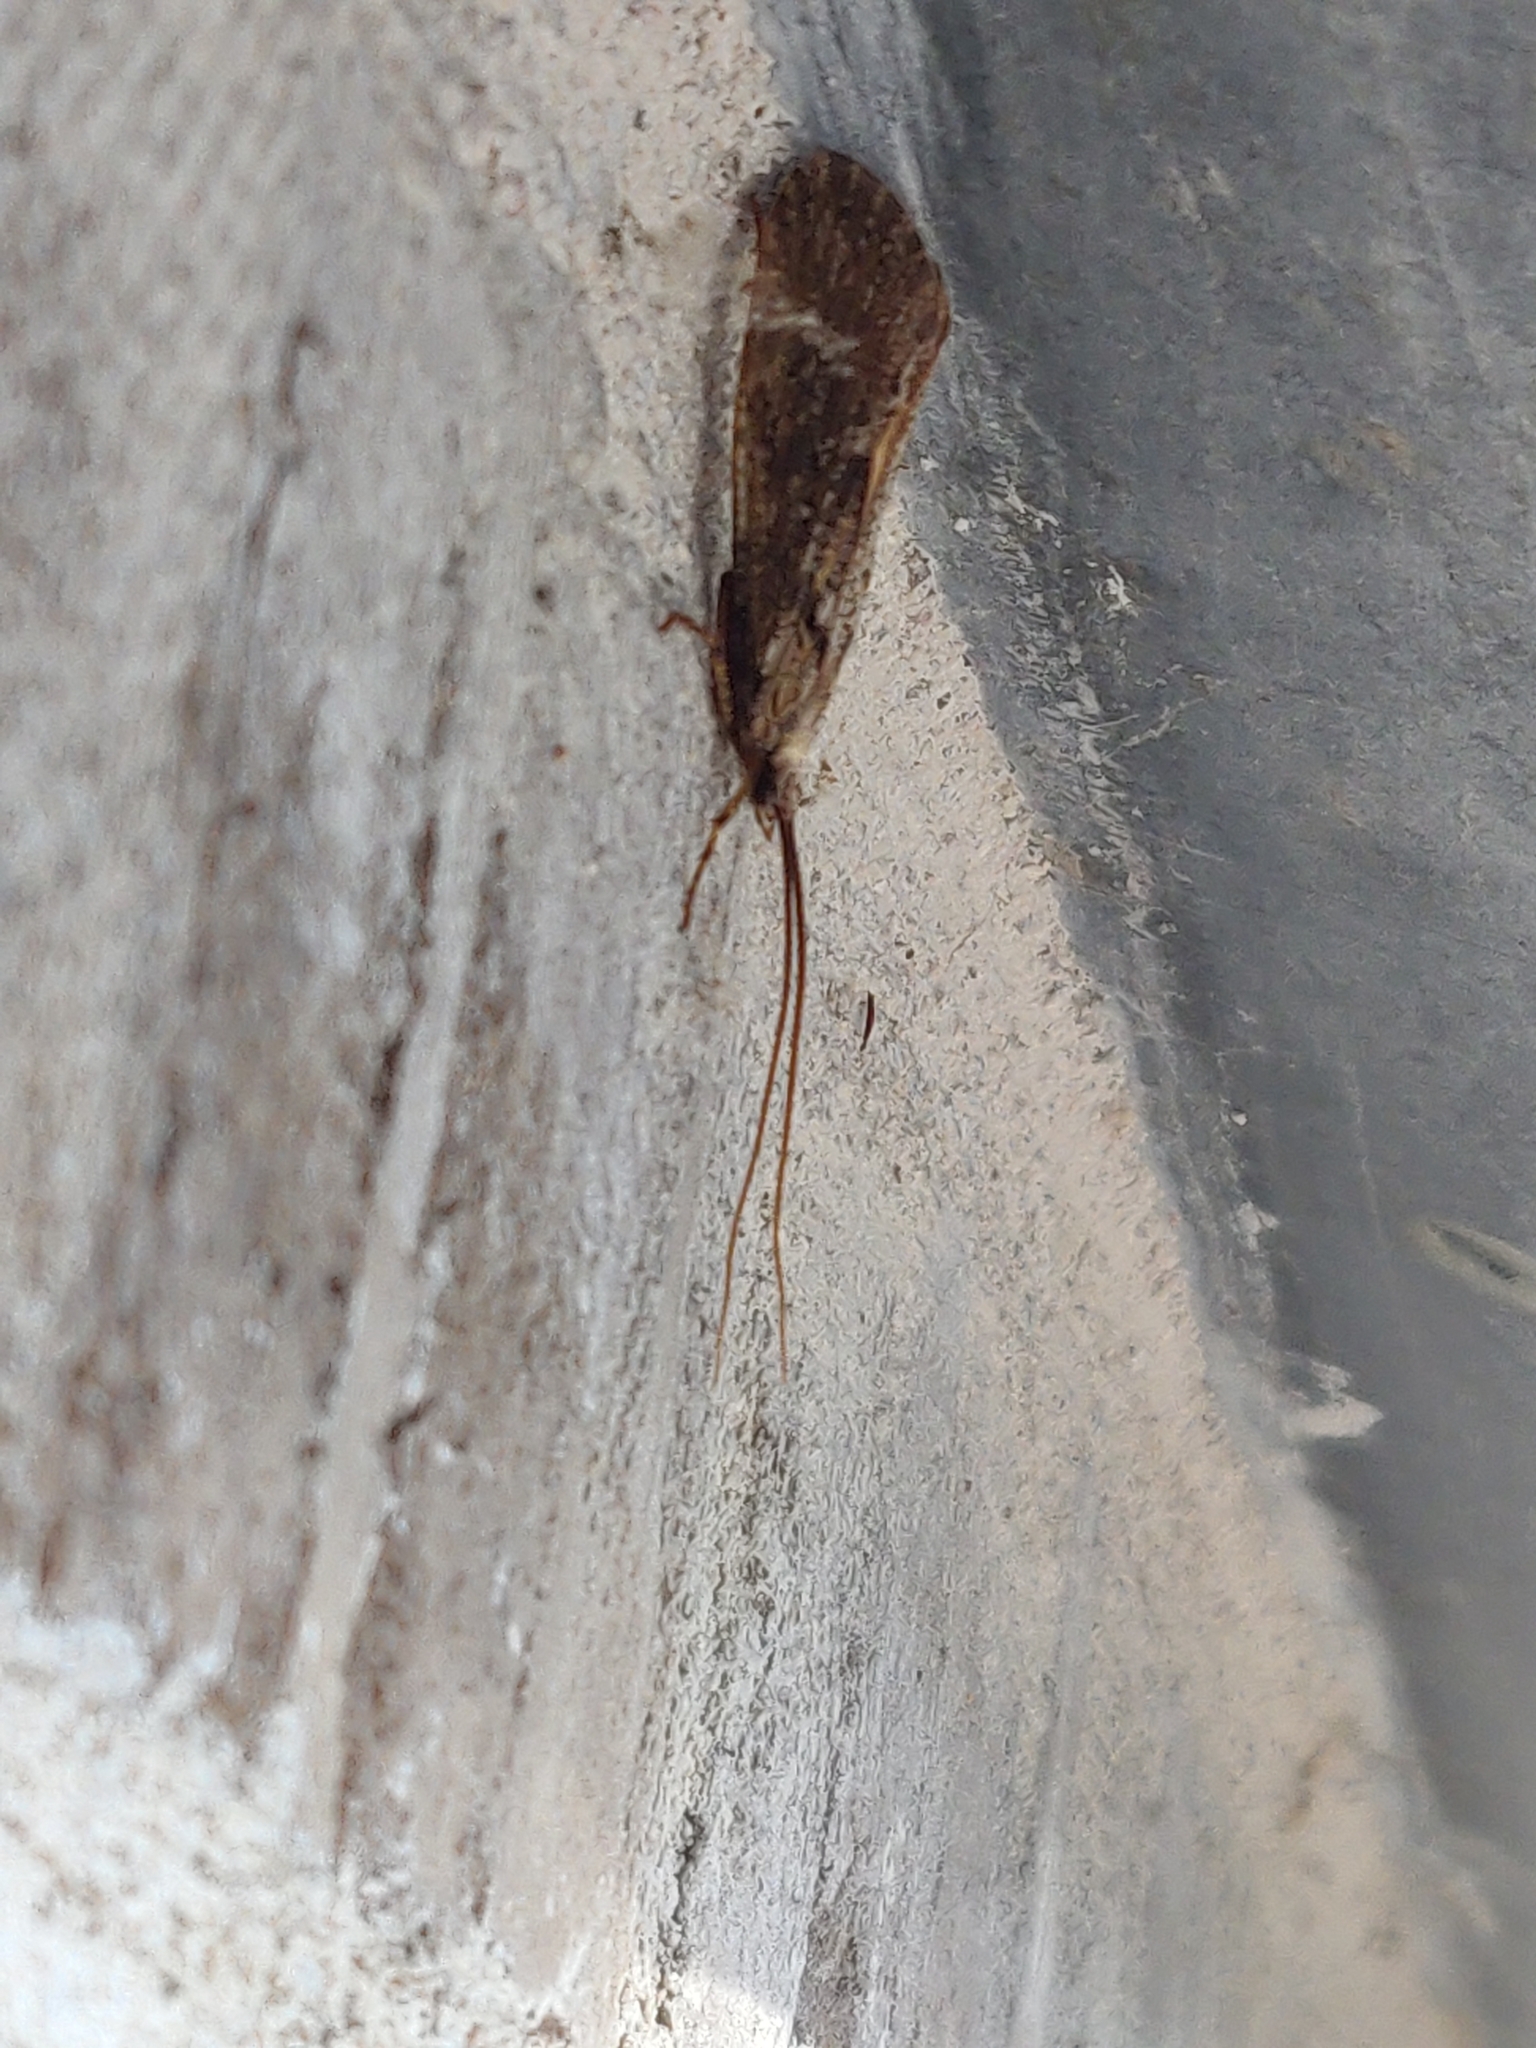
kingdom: Animalia
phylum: Arthropoda
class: Insecta
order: Trichoptera
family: Phryganeidae
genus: Phryganea
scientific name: Phryganea grandis
